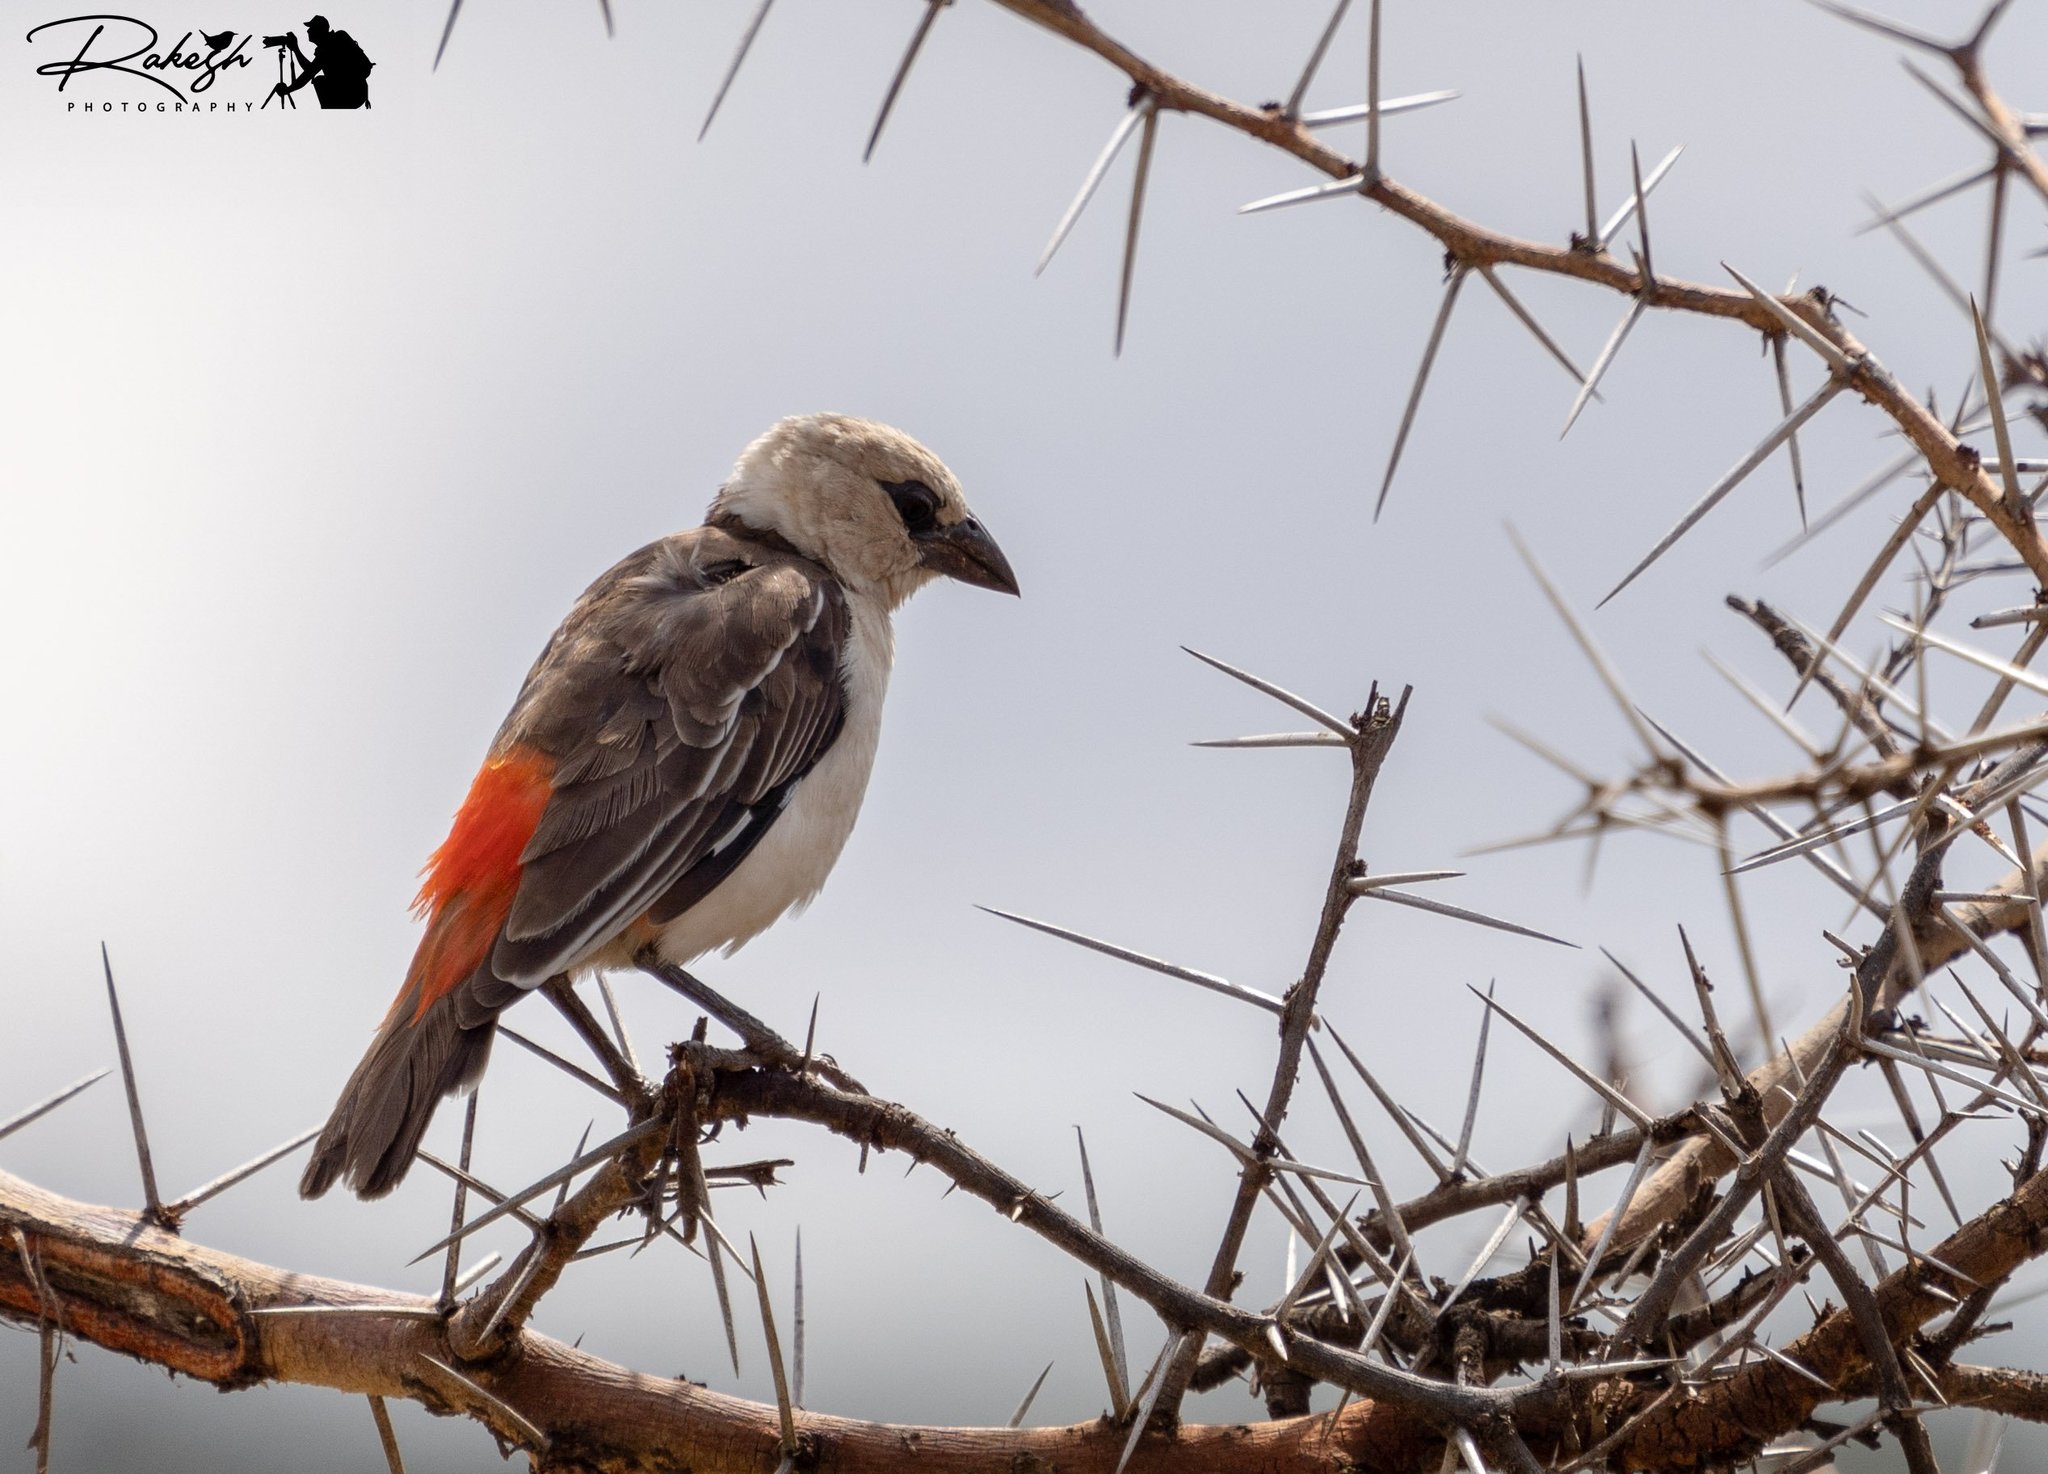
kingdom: Animalia
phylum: Chordata
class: Aves
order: Passeriformes
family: Ploceidae
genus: Dinemellia
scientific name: Dinemellia dinemelli
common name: White-headed buffalo weaver
